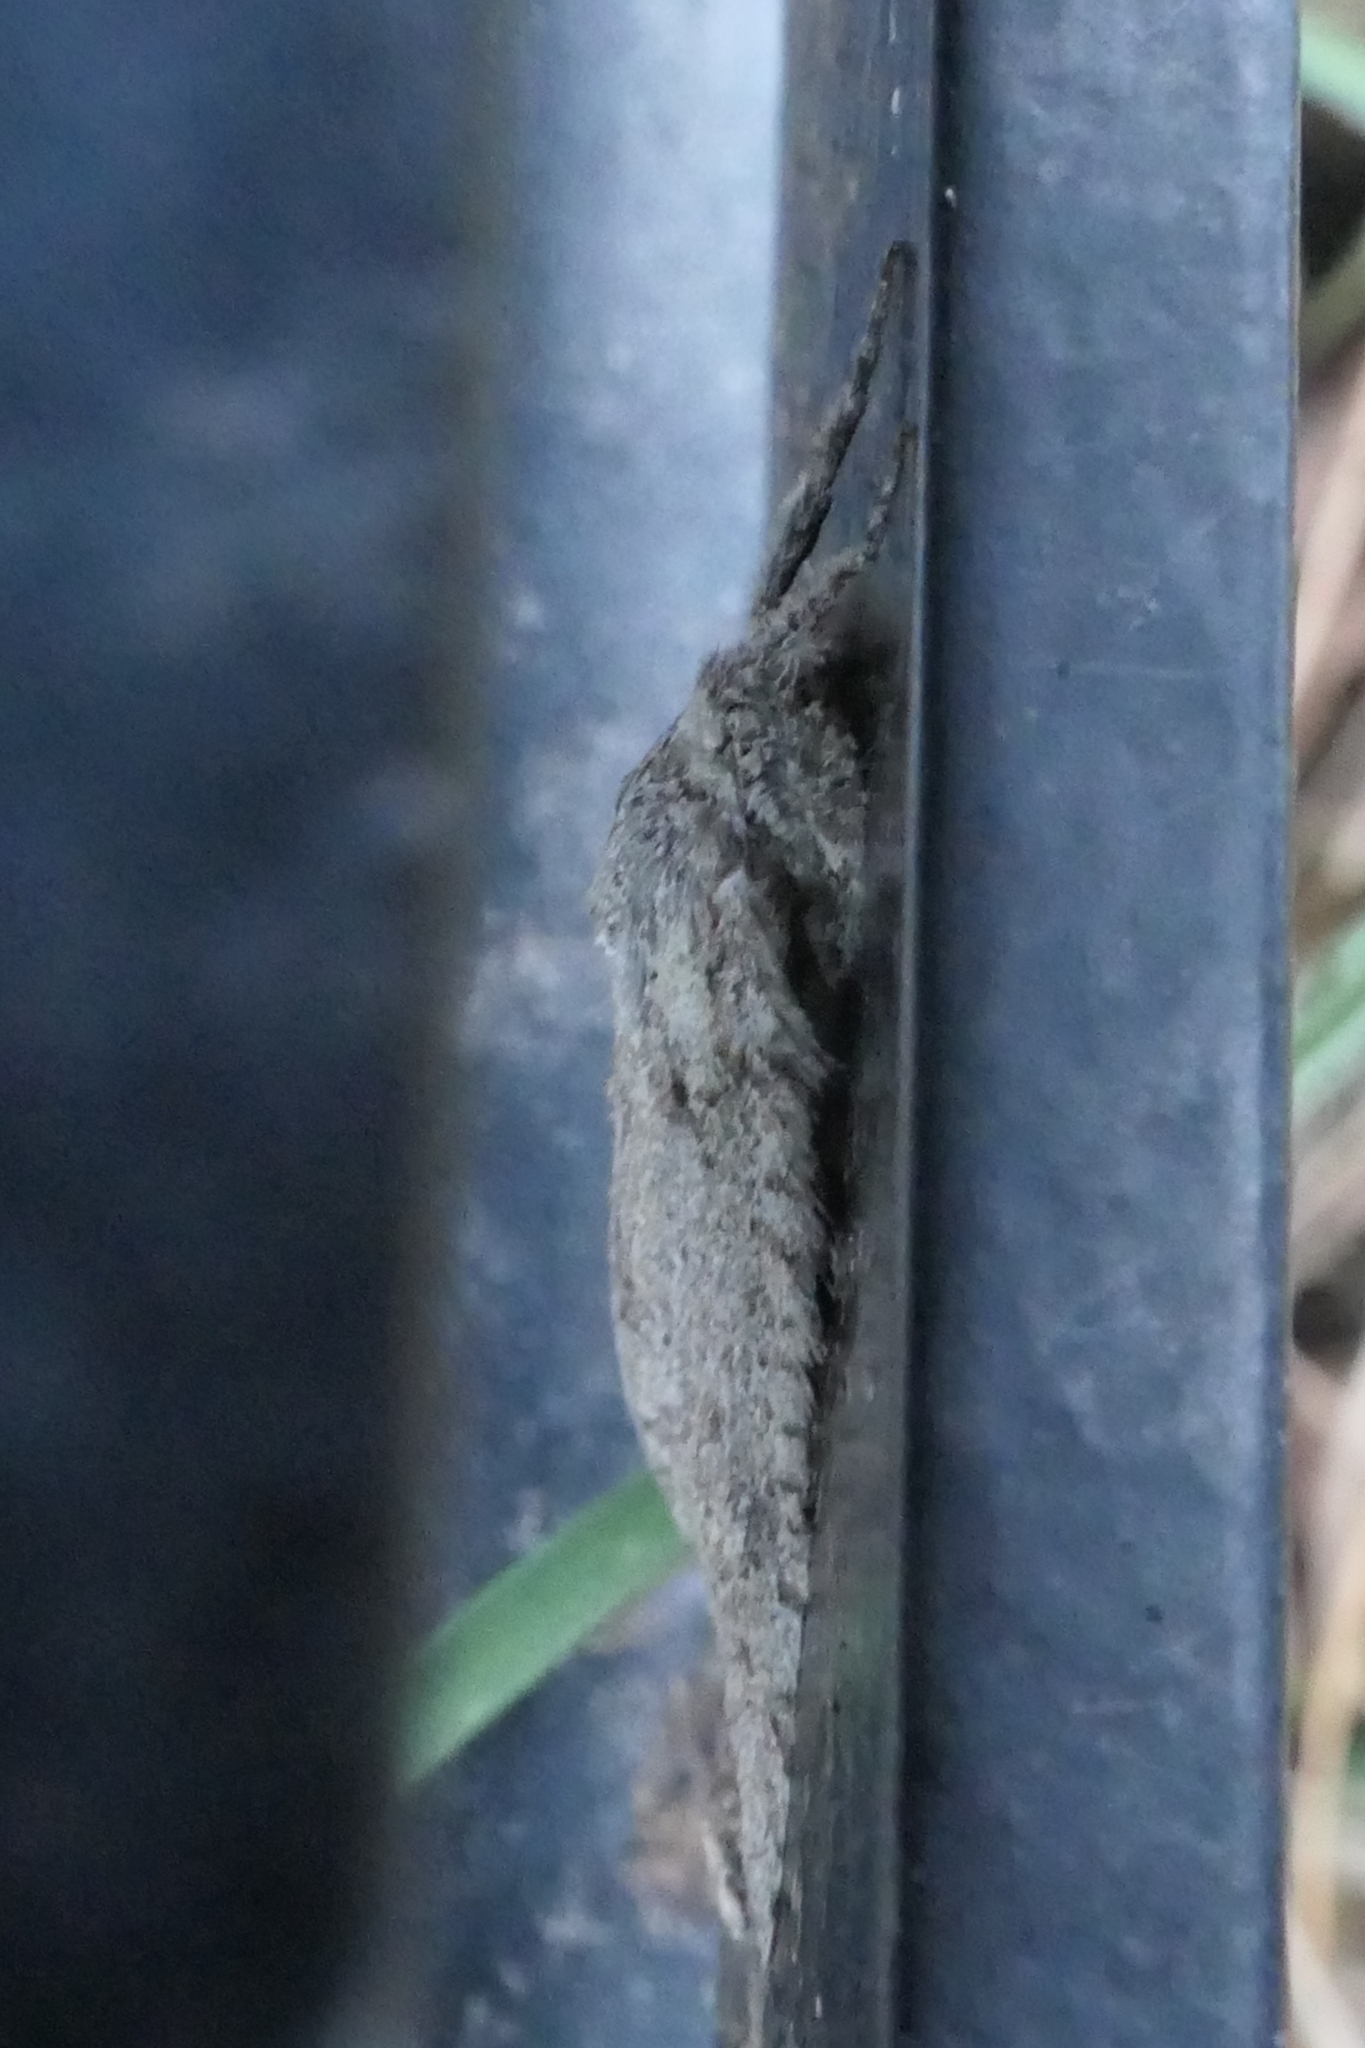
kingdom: Animalia
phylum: Arthropoda
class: Insecta
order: Lepidoptera
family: Geometridae
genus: Declana
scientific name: Declana floccosa
